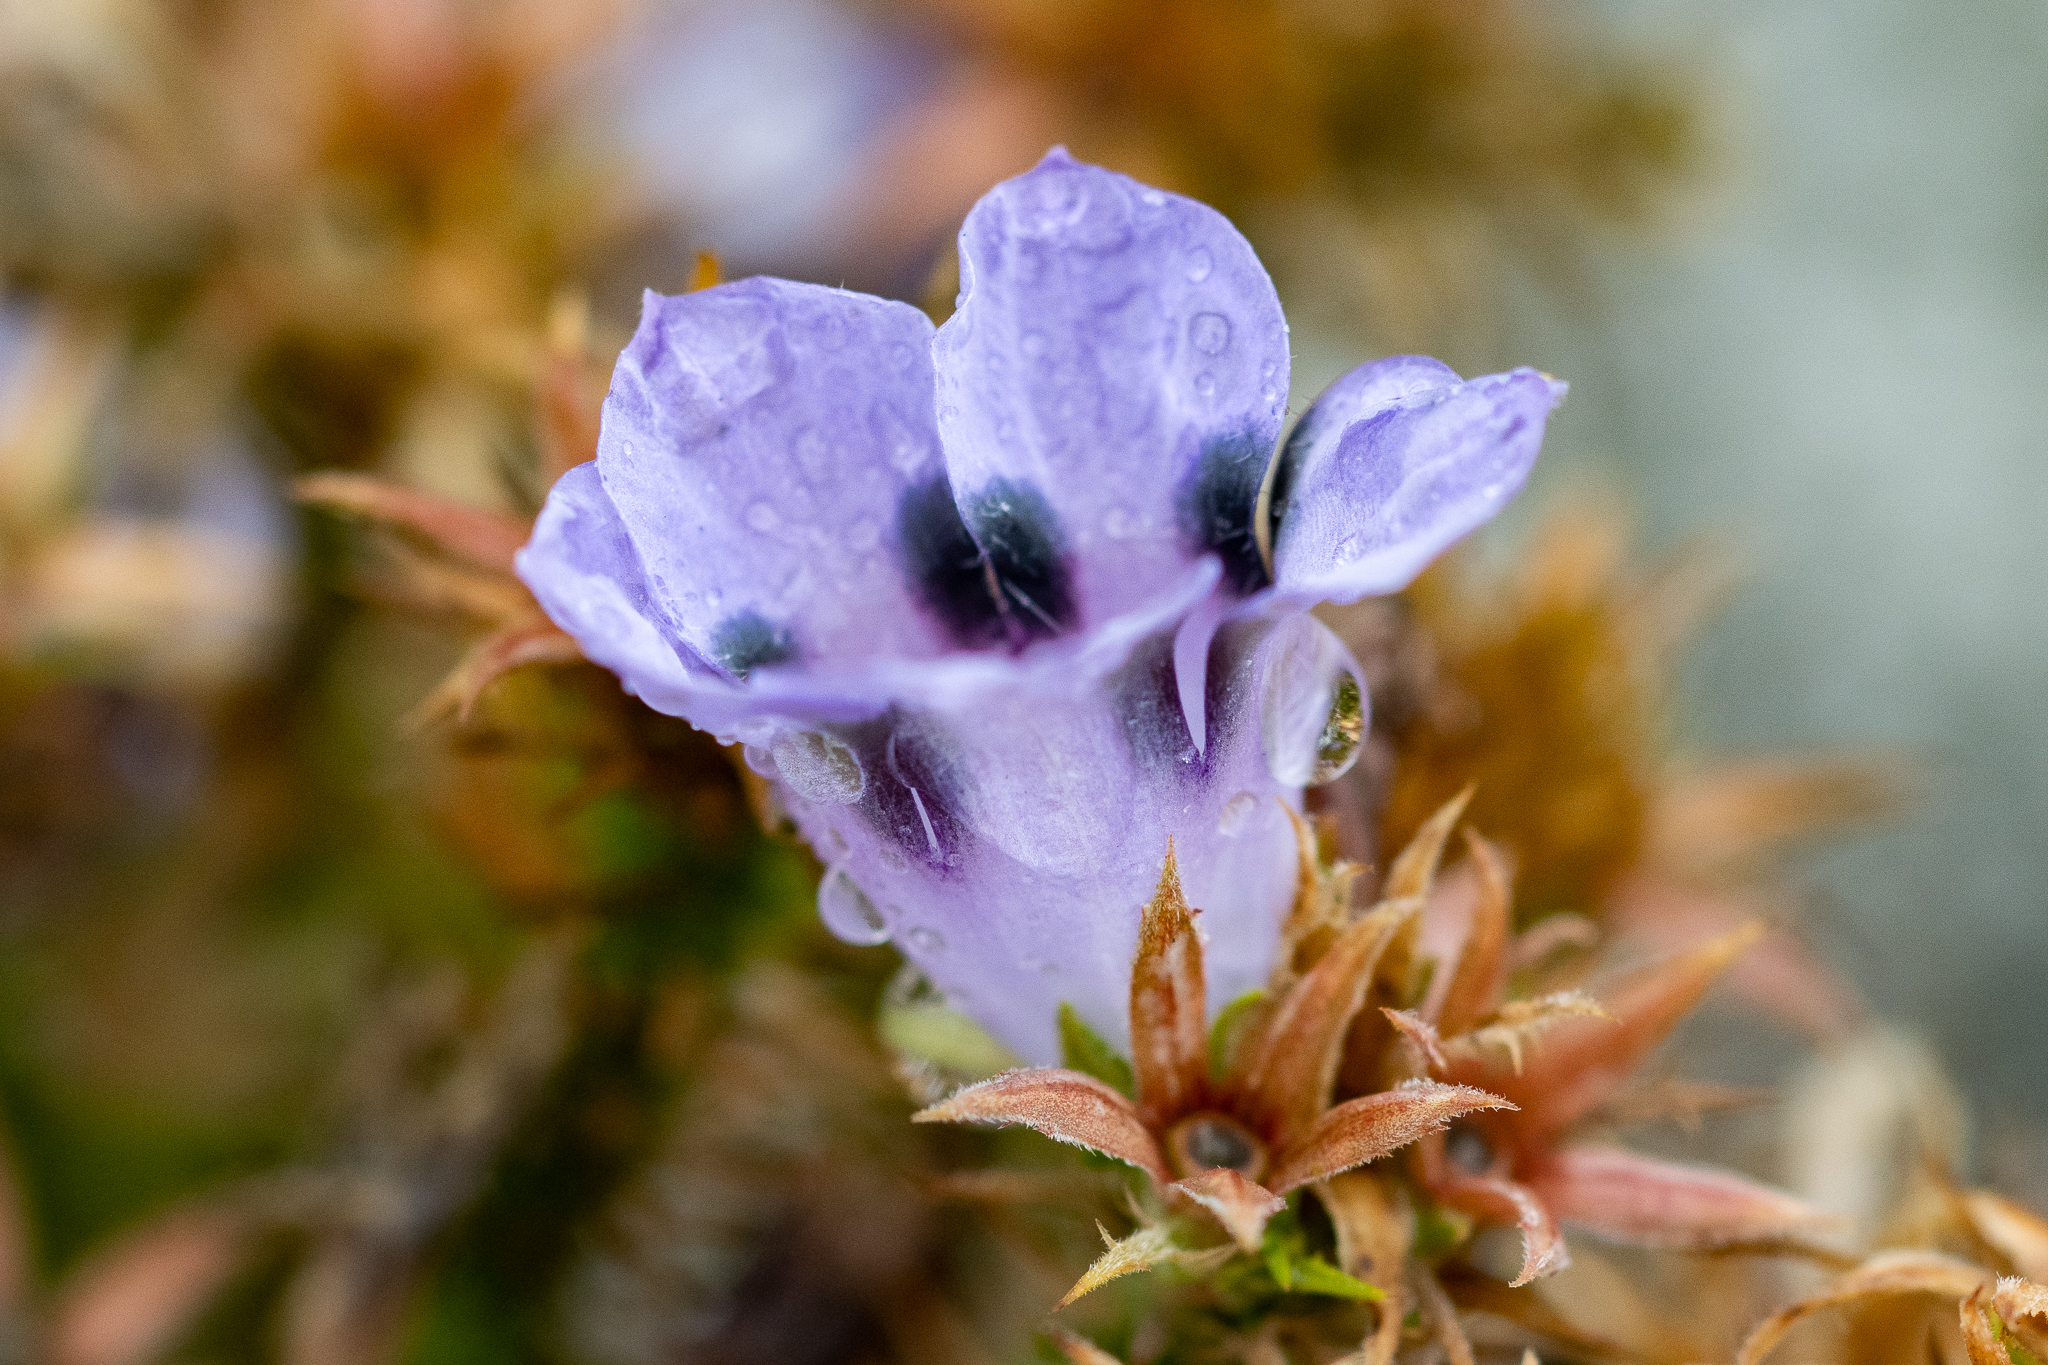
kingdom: Plantae
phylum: Tracheophyta
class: Magnoliopsida
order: Asterales
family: Campanulaceae
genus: Roella
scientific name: Roella maculata
